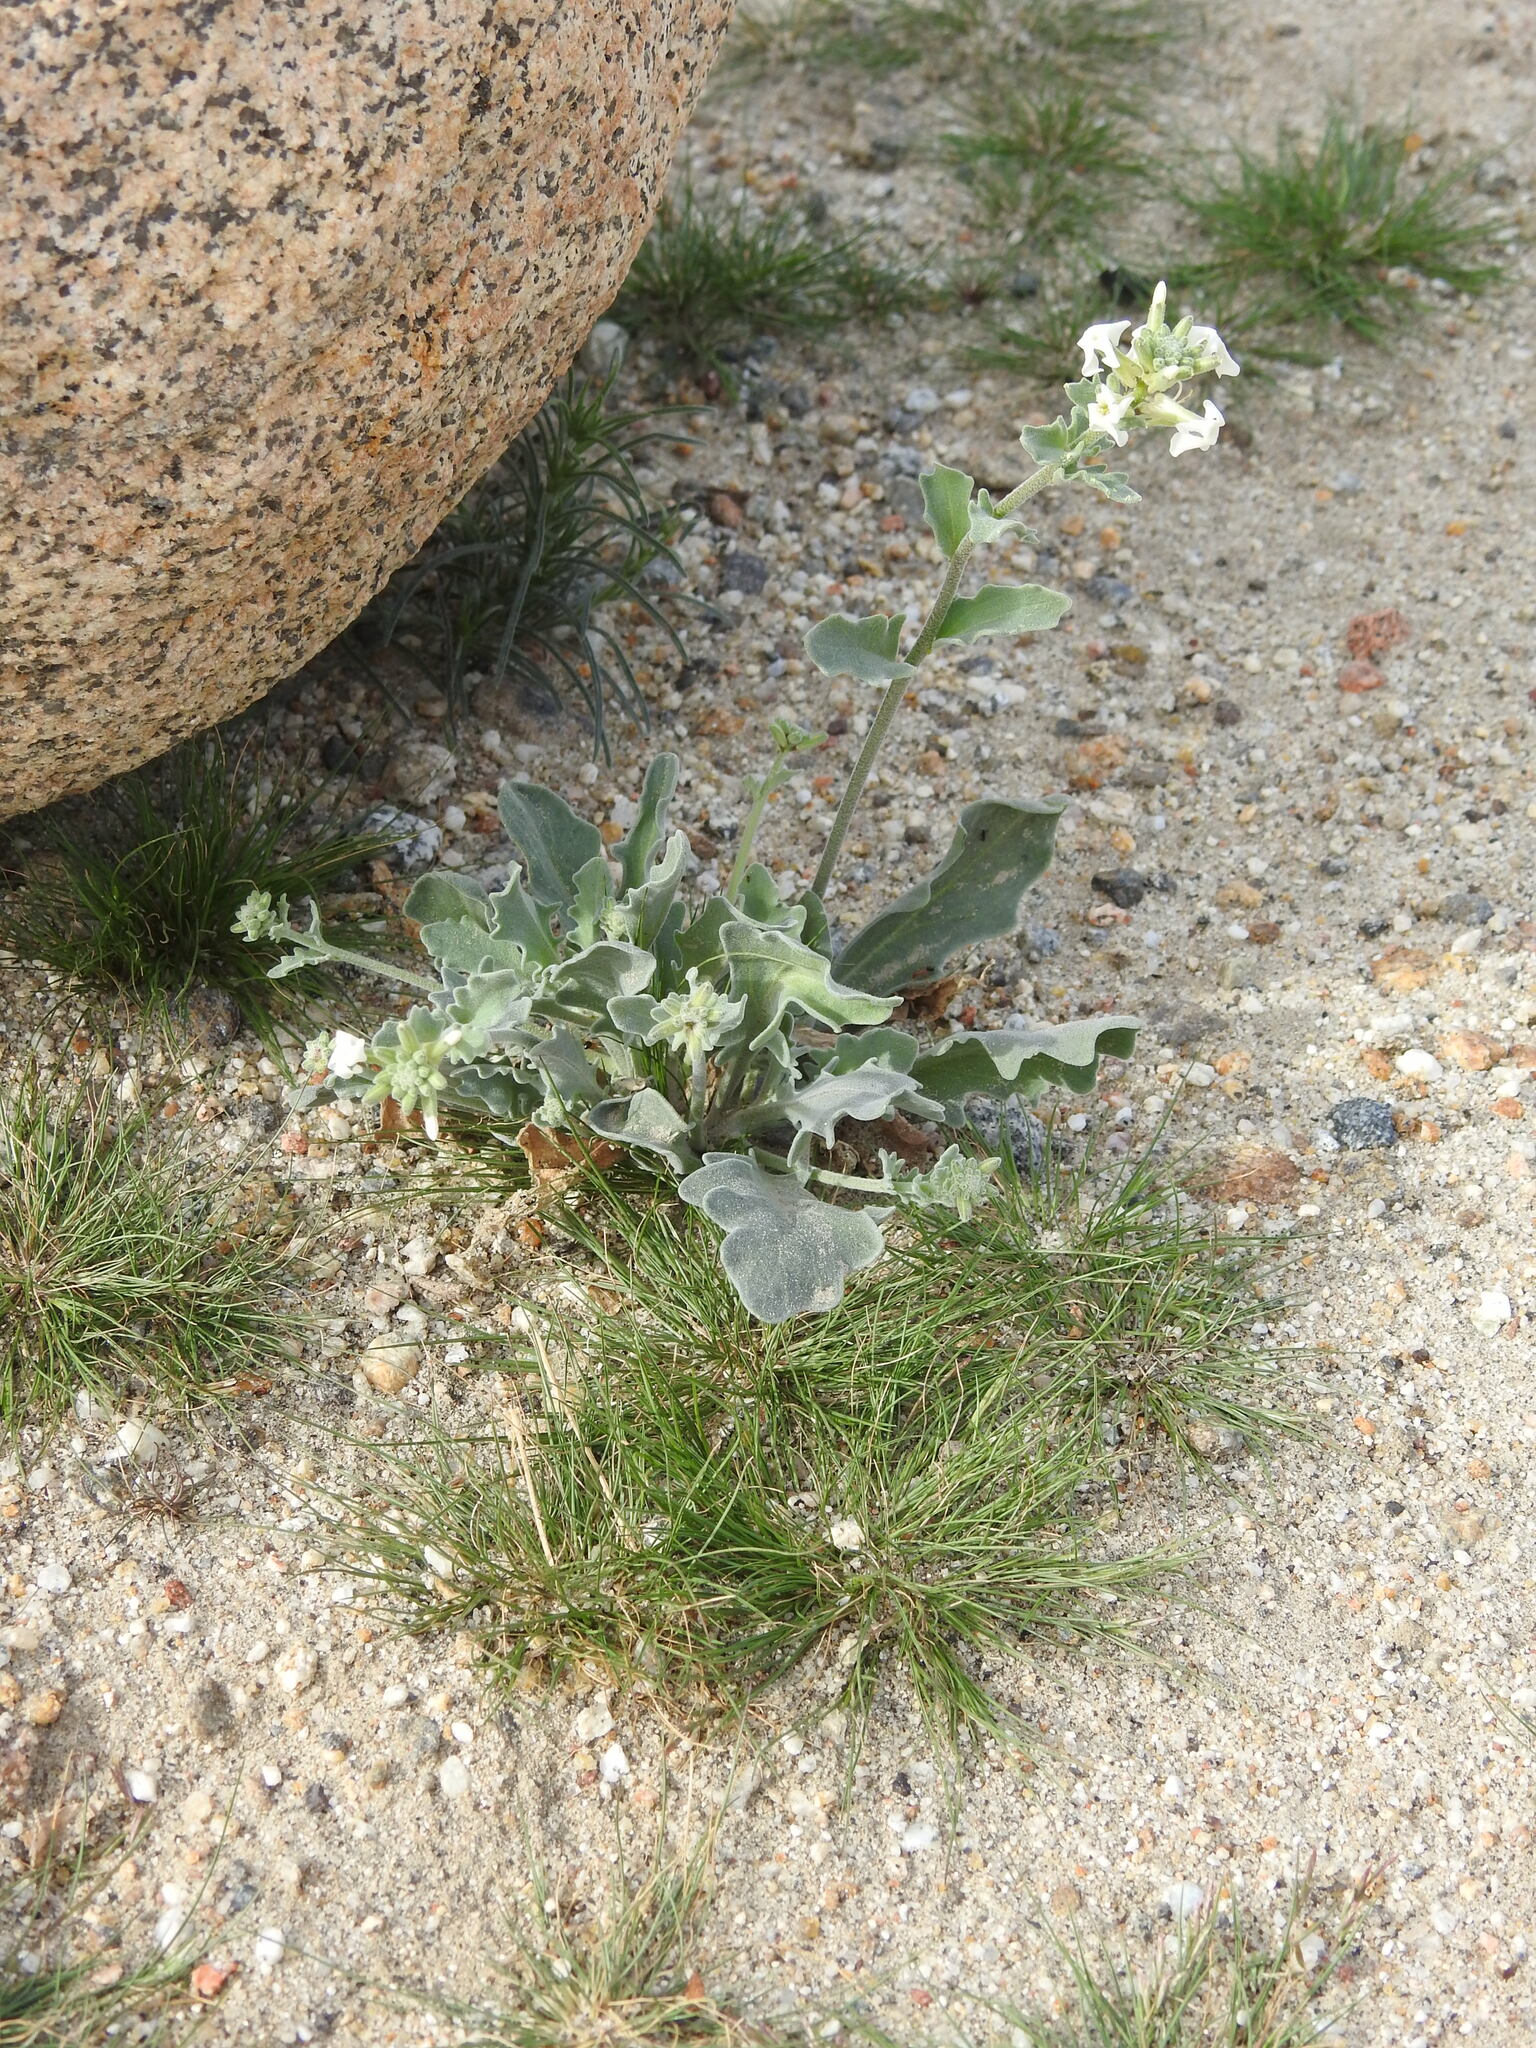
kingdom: Plantae
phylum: Tracheophyta
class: Magnoliopsida
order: Brassicales
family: Brassicaceae
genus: Dithyrea
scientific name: Dithyrea californica
